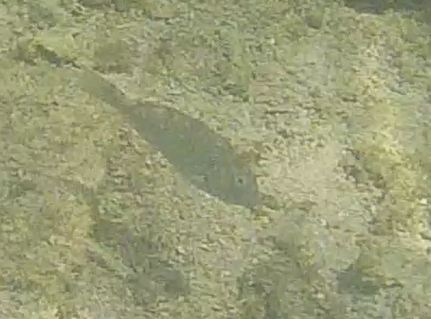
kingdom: Animalia
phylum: Chordata
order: Perciformes
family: Scaridae
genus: Sparisoma
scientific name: Sparisoma
